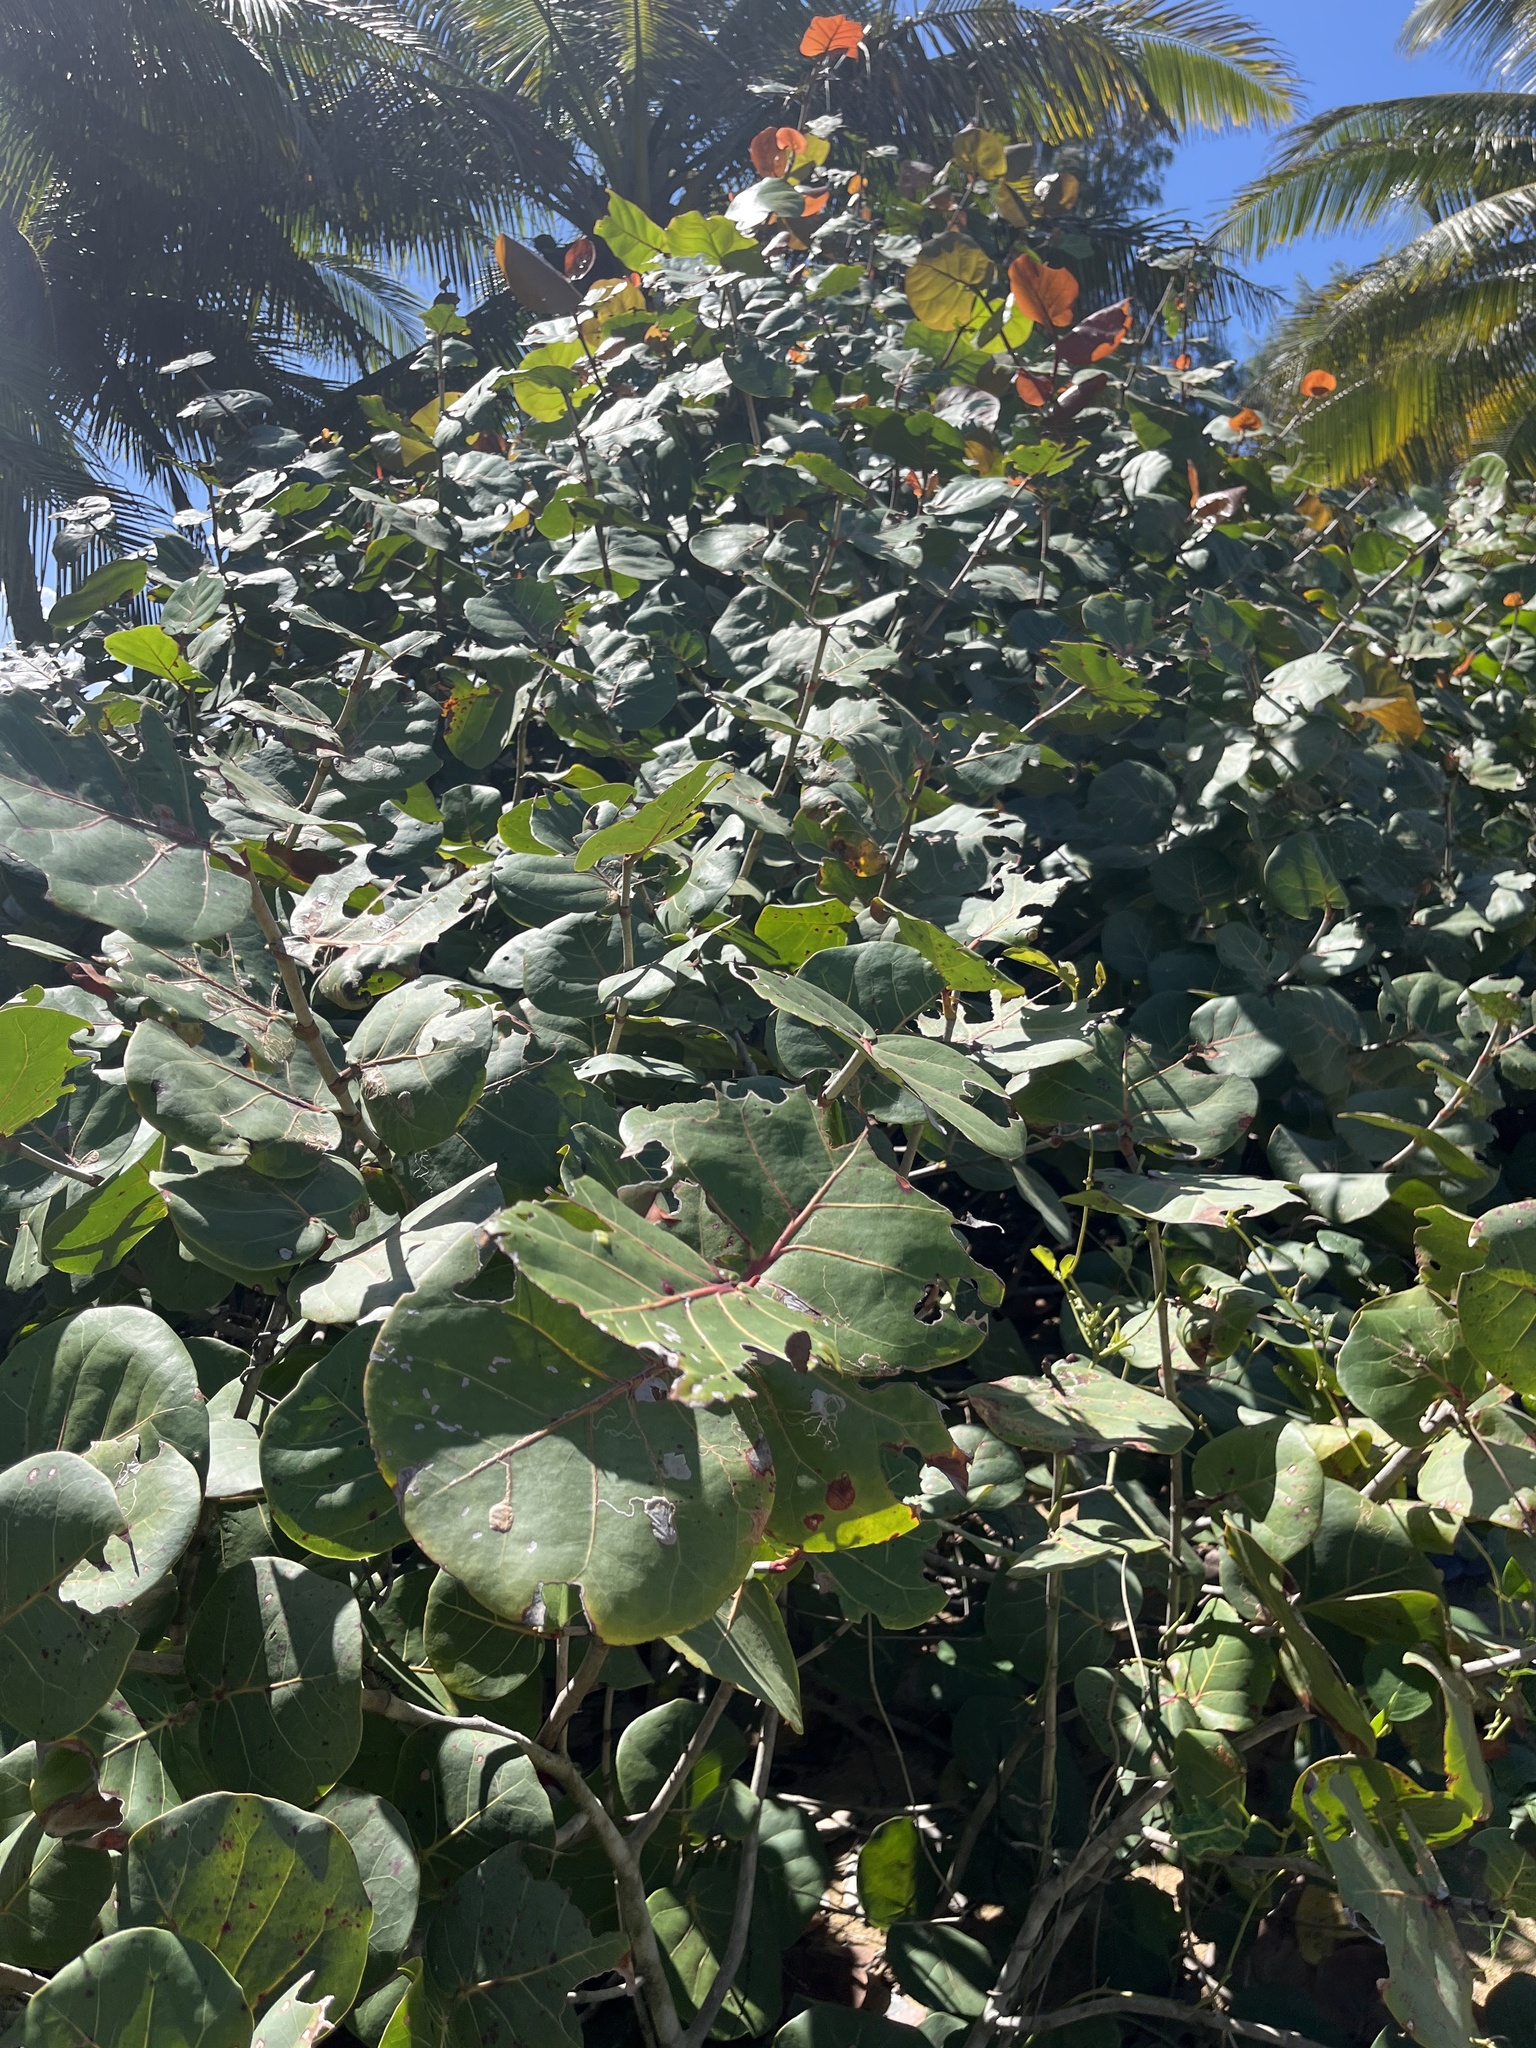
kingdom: Plantae
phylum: Tracheophyta
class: Magnoliopsida
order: Caryophyllales
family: Polygonaceae
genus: Coccoloba
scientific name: Coccoloba uvifera
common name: Seagrape
